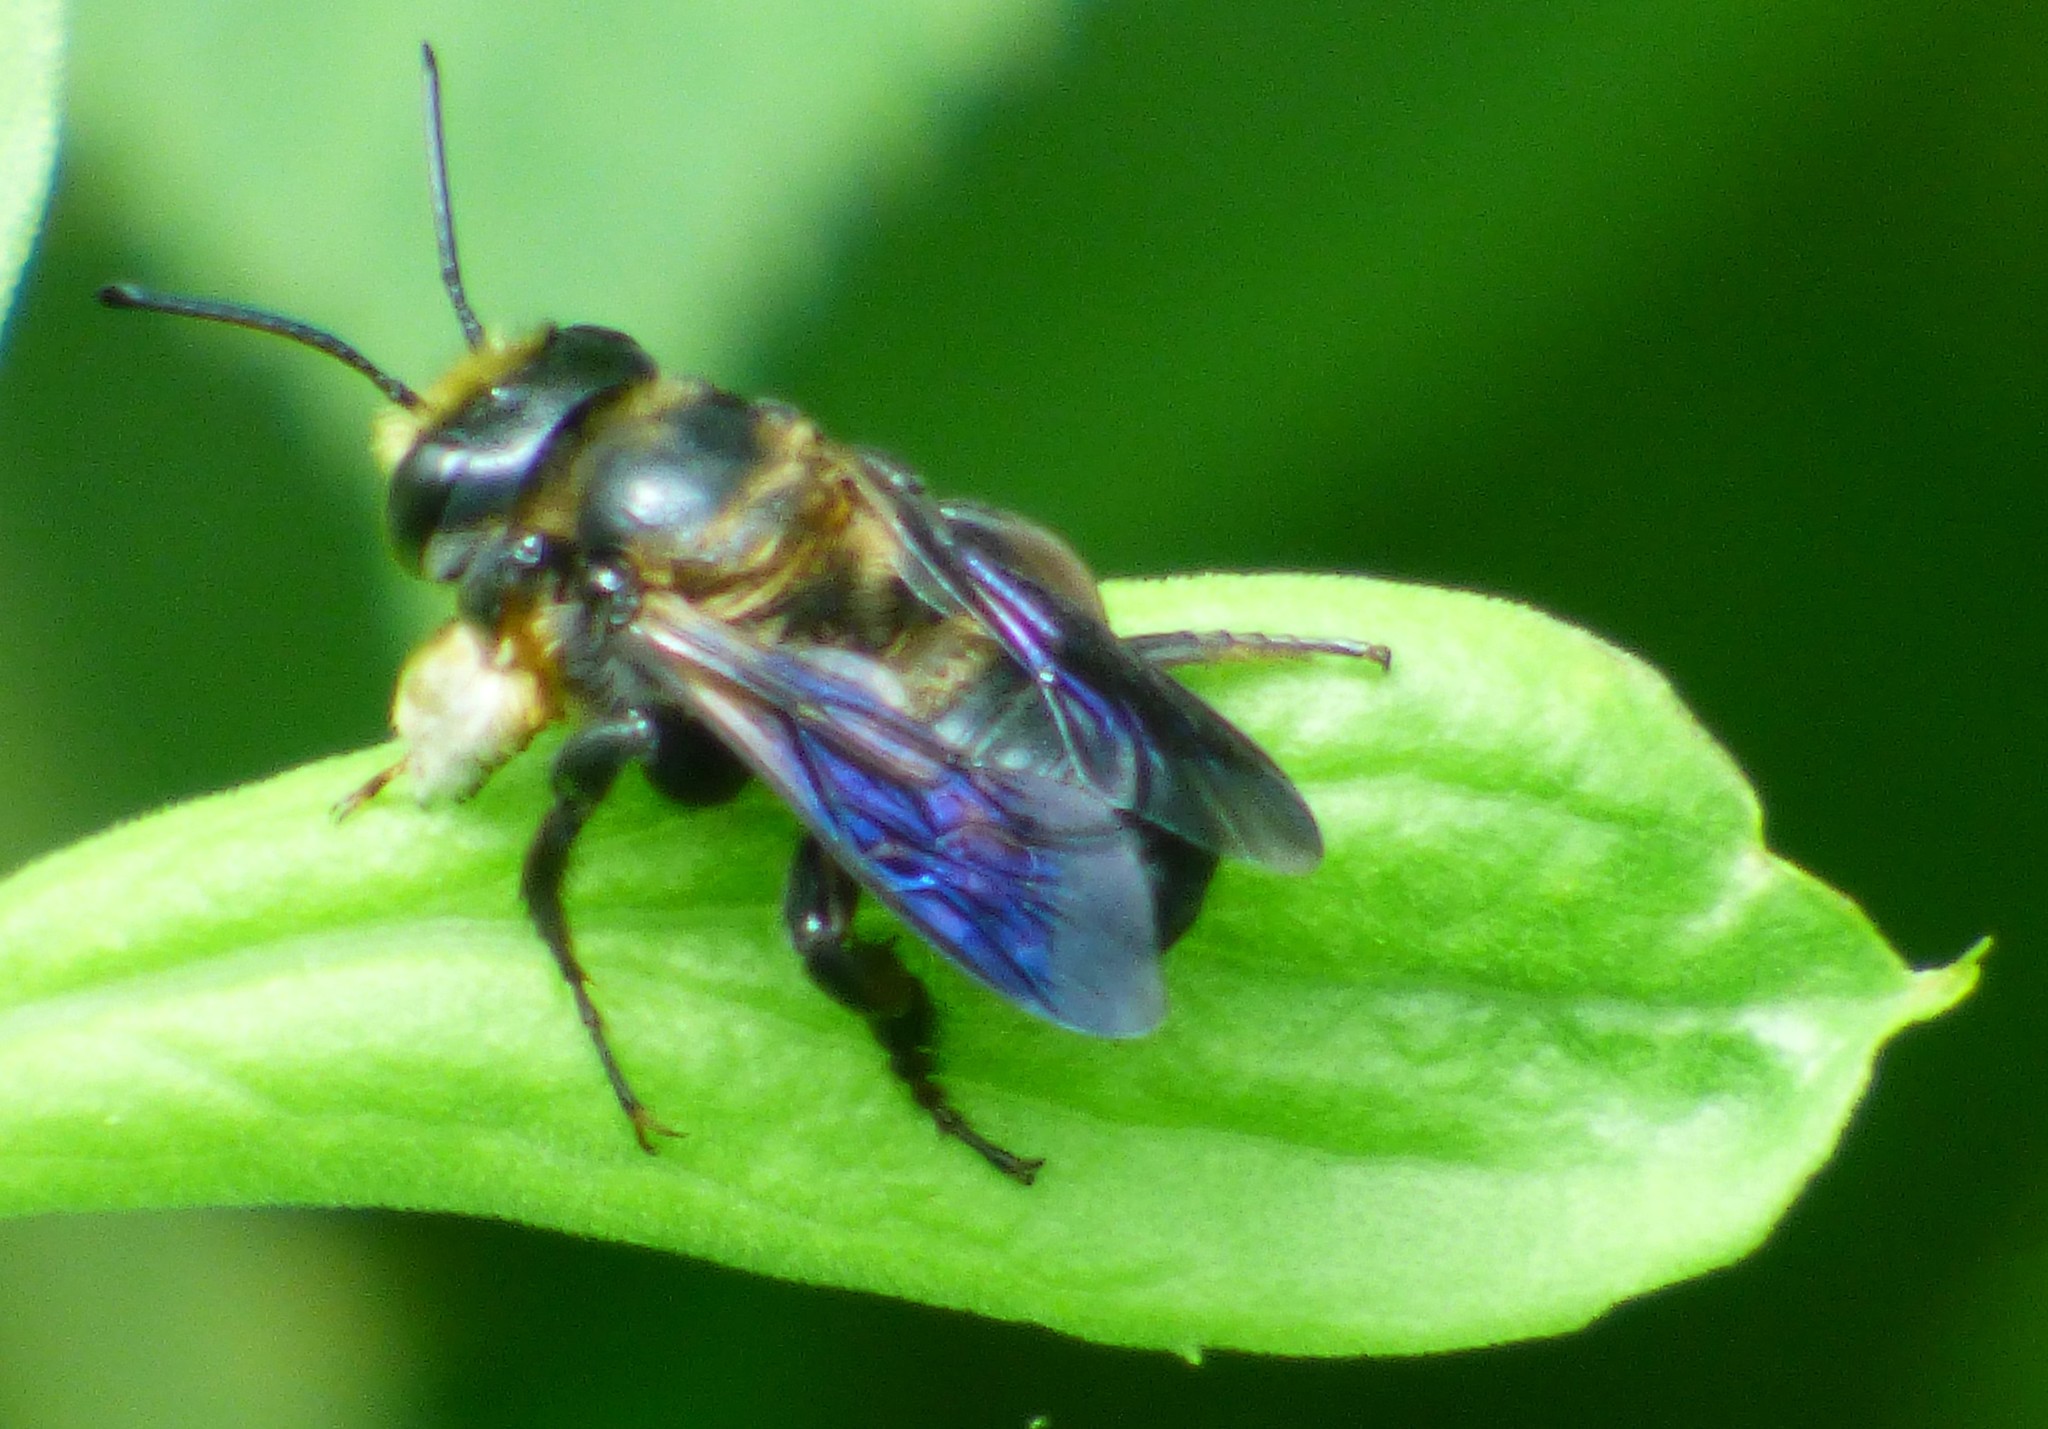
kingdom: Animalia
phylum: Arthropoda
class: Insecta
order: Hymenoptera
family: Megachilidae
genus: Megachile
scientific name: Megachile xylocopoides
